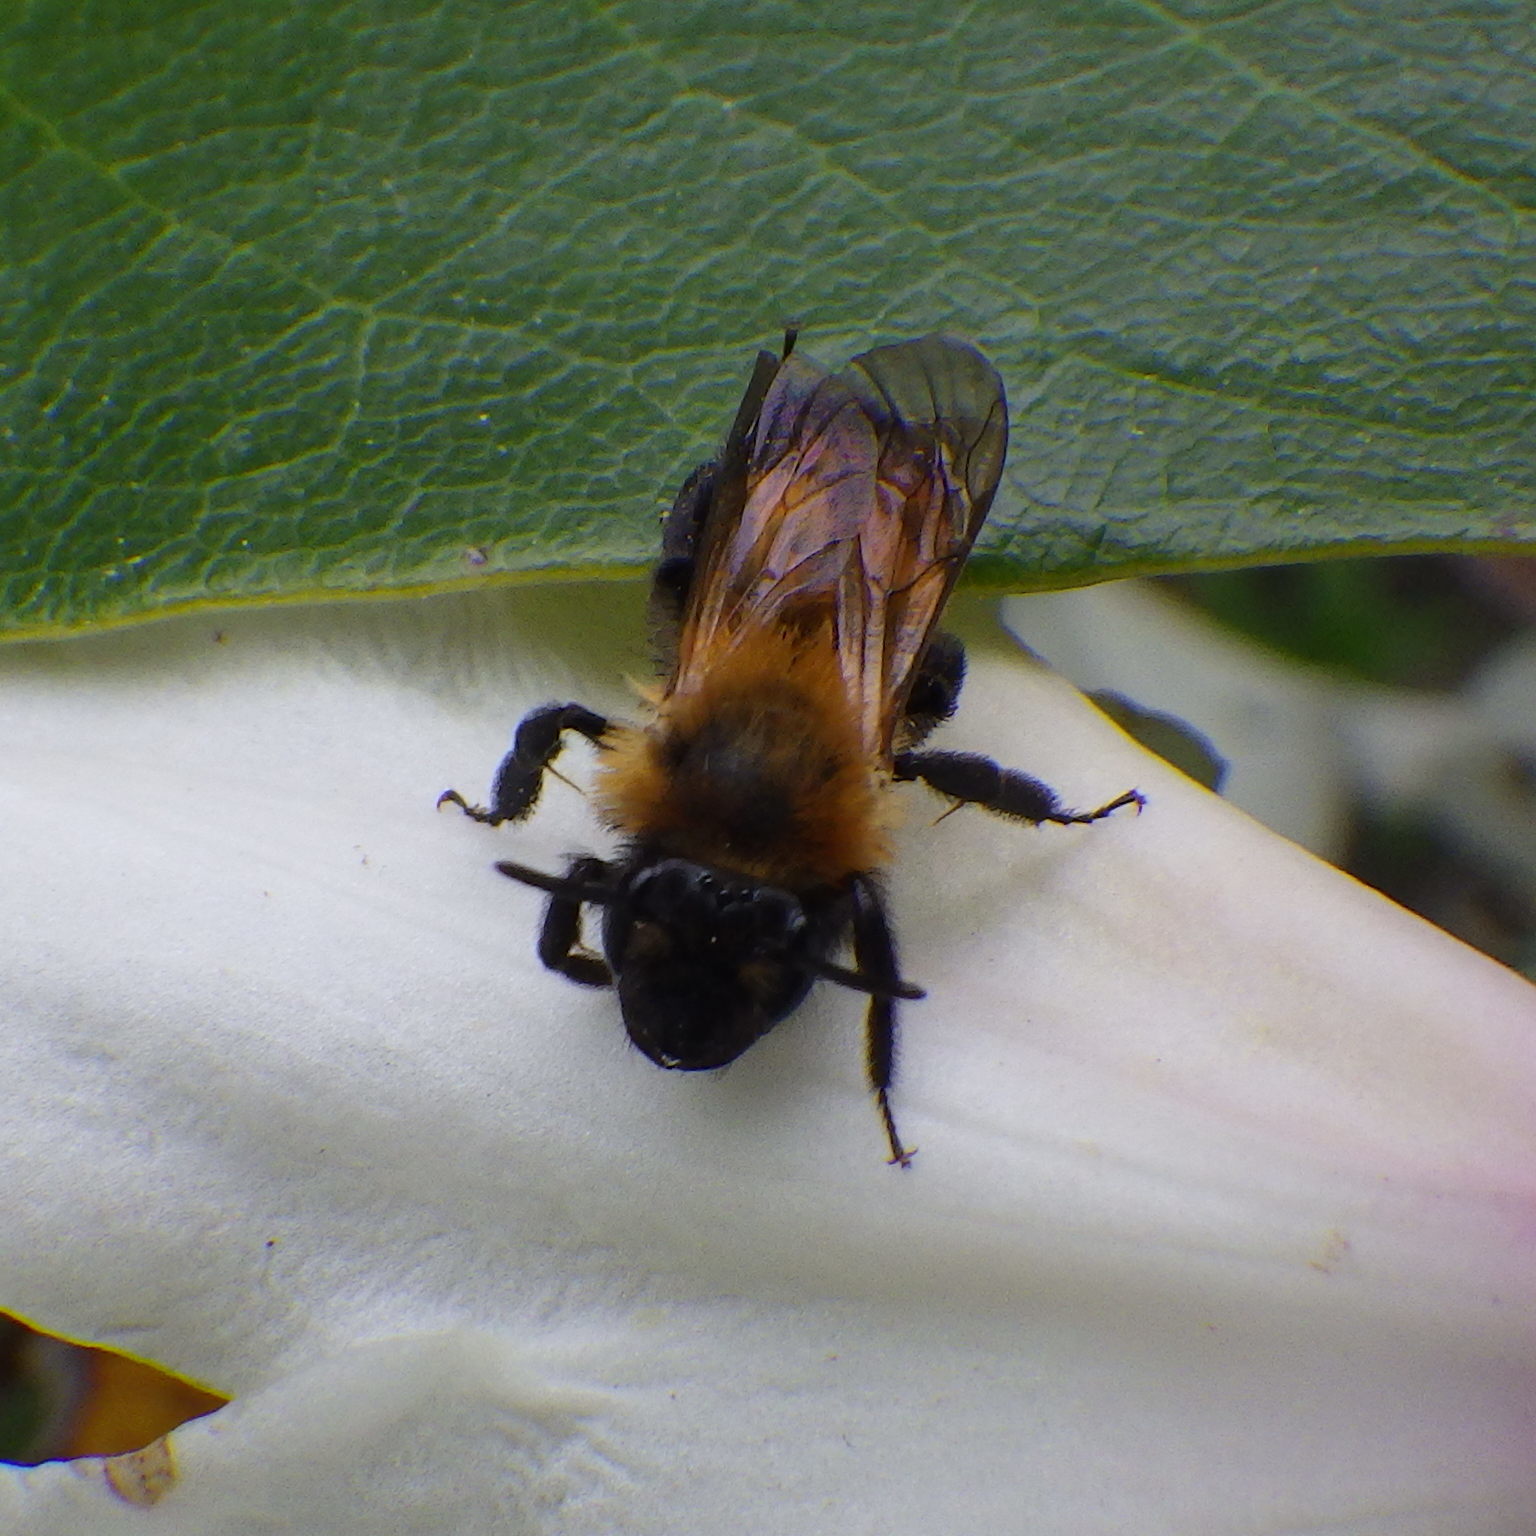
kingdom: Animalia
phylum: Arthropoda
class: Insecta
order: Hymenoptera
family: Andrenidae
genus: Andrena
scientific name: Andrena milwaukeensis
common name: Milwaukee mining bee
